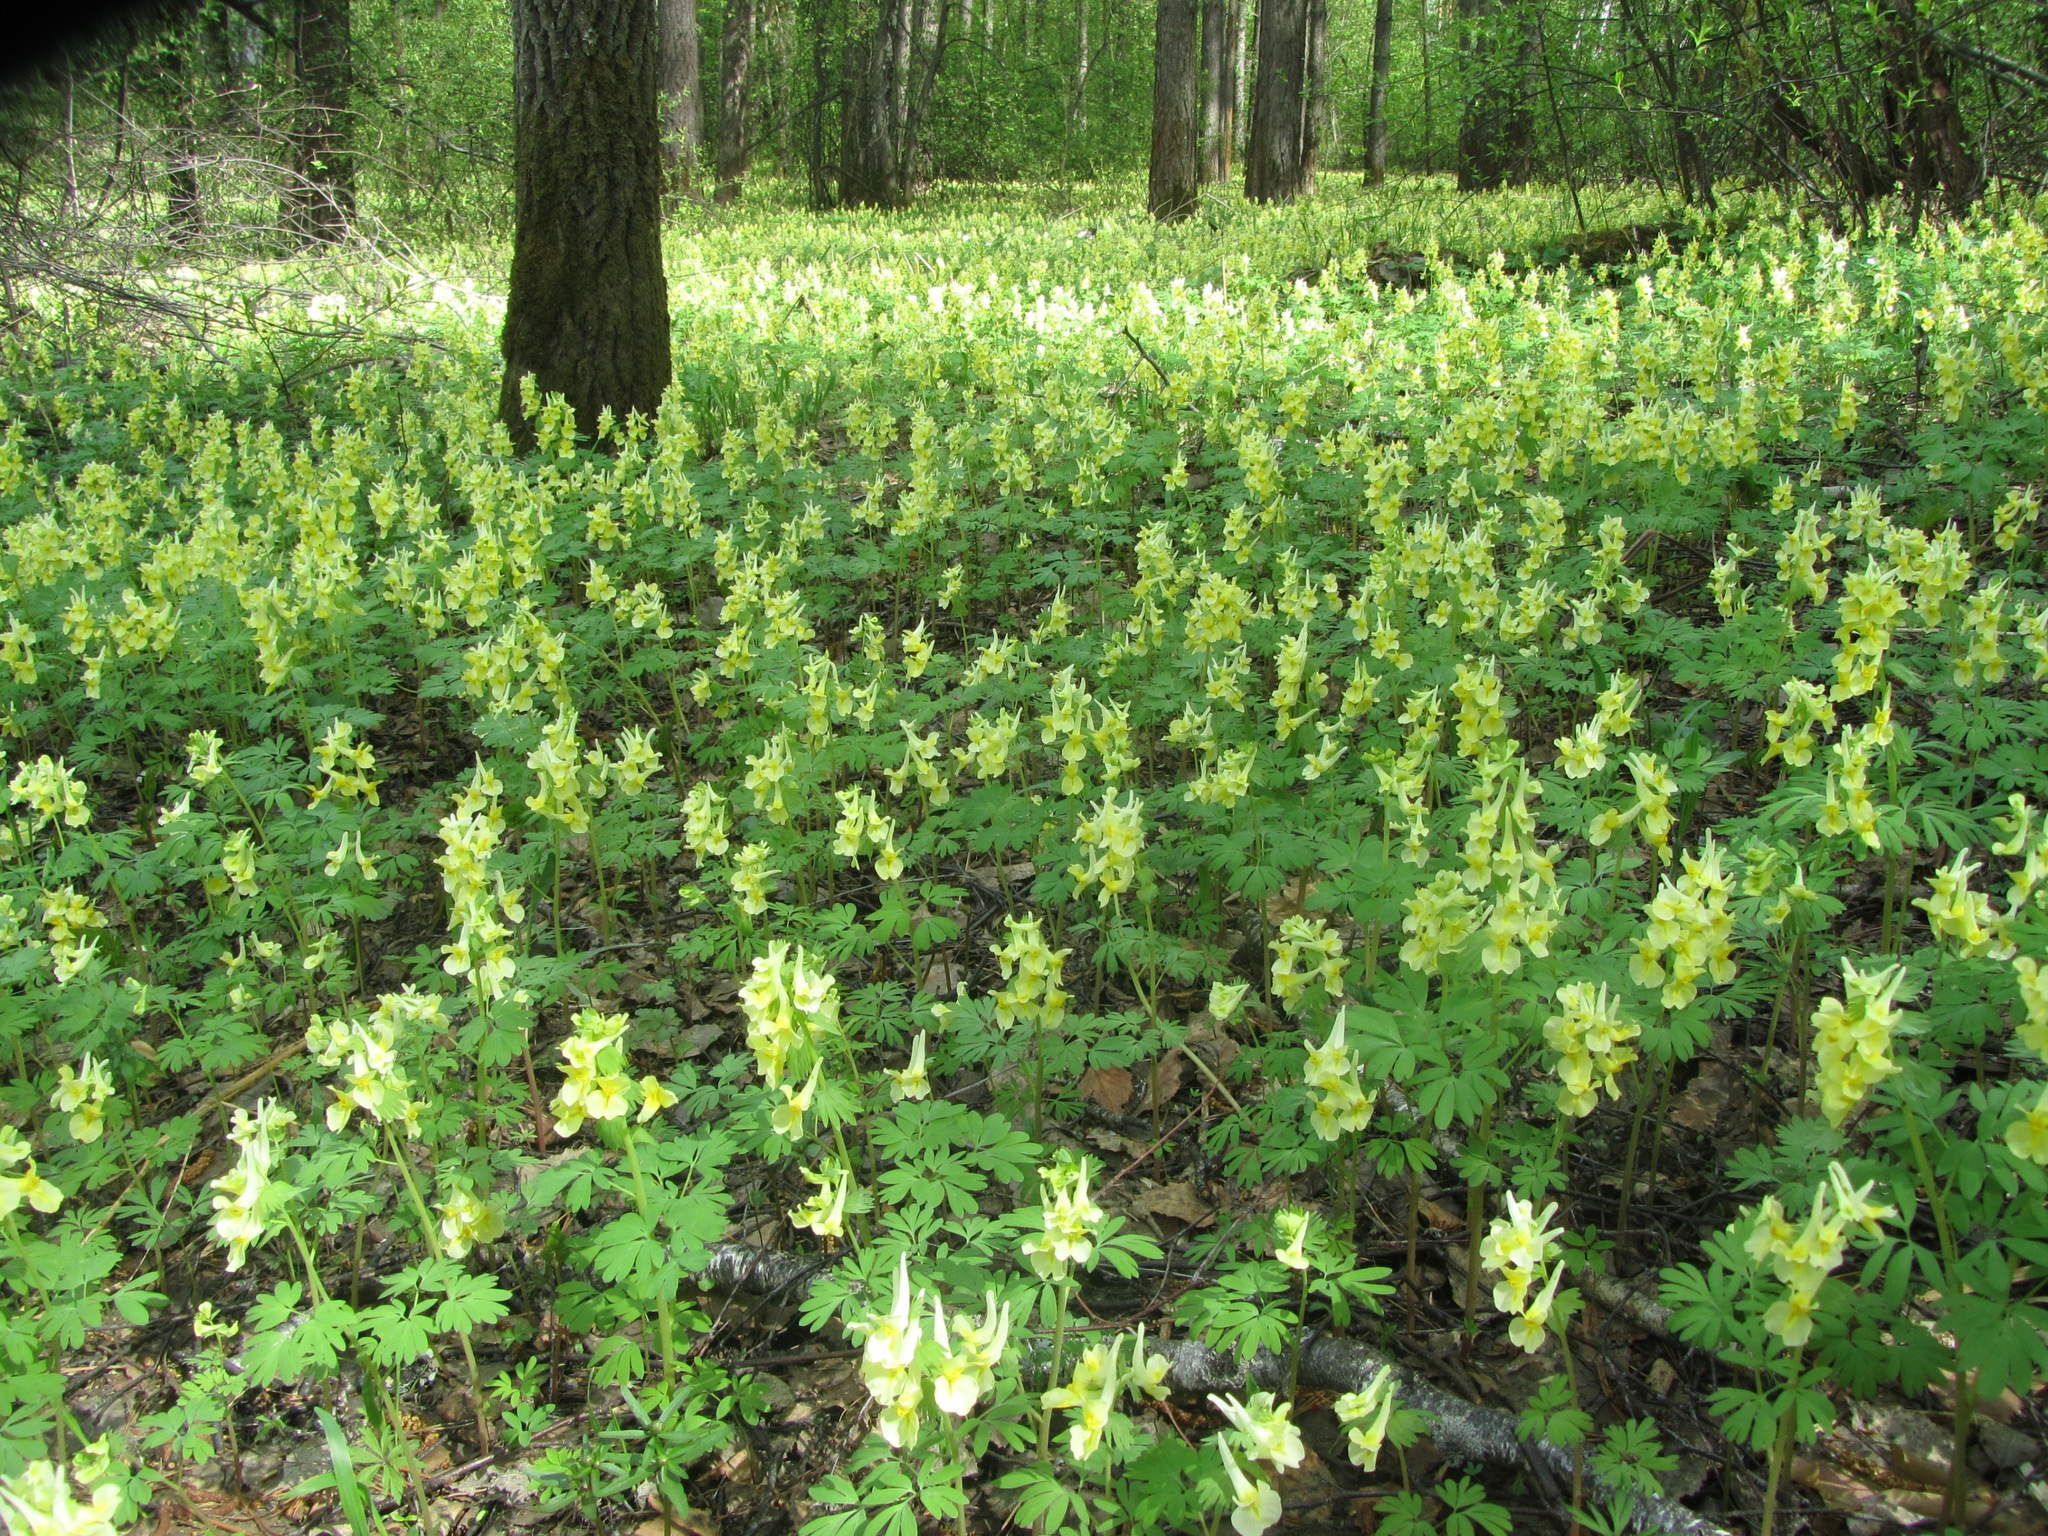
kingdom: Plantae
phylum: Tracheophyta
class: Magnoliopsida
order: Ranunculales
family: Papaveraceae
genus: Corydalis
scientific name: Corydalis bracteata
